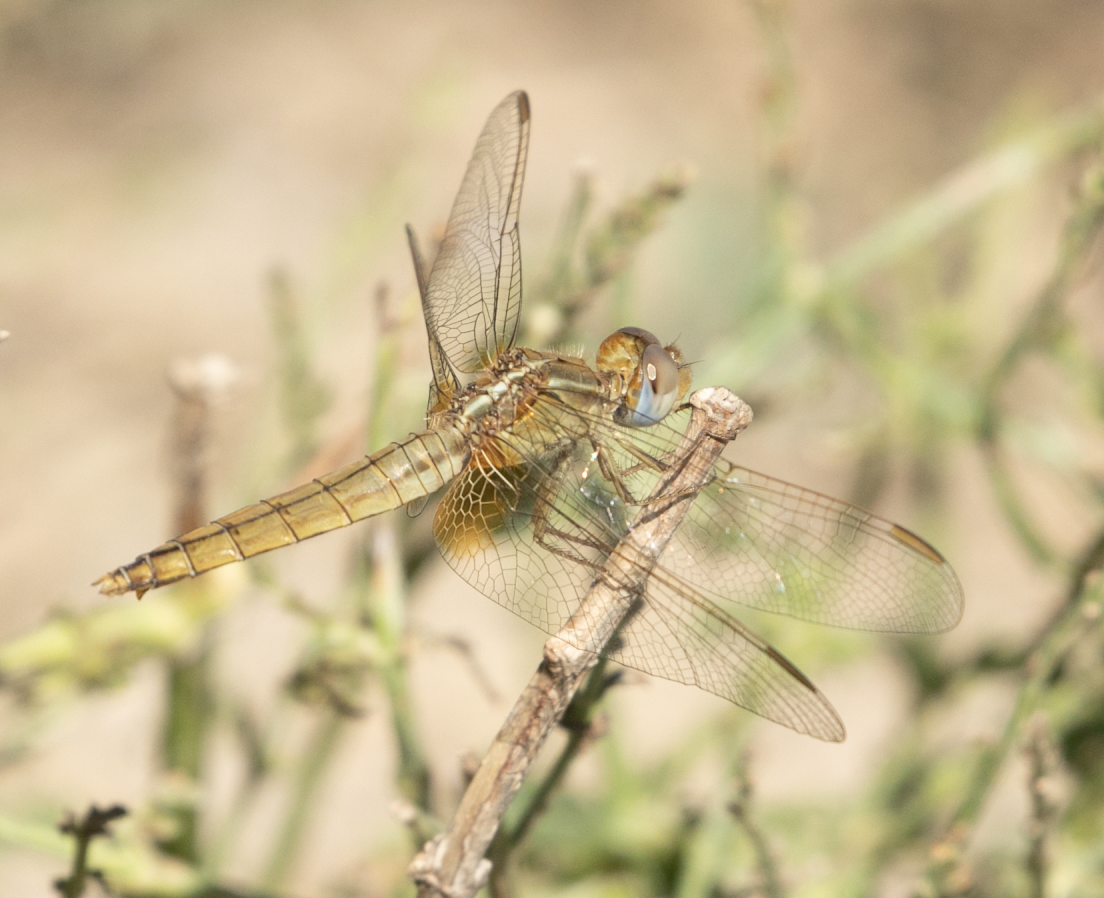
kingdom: Animalia
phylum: Arthropoda
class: Insecta
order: Odonata
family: Libellulidae
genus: Crocothemis
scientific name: Crocothemis erythraea
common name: Scarlet dragonfly
